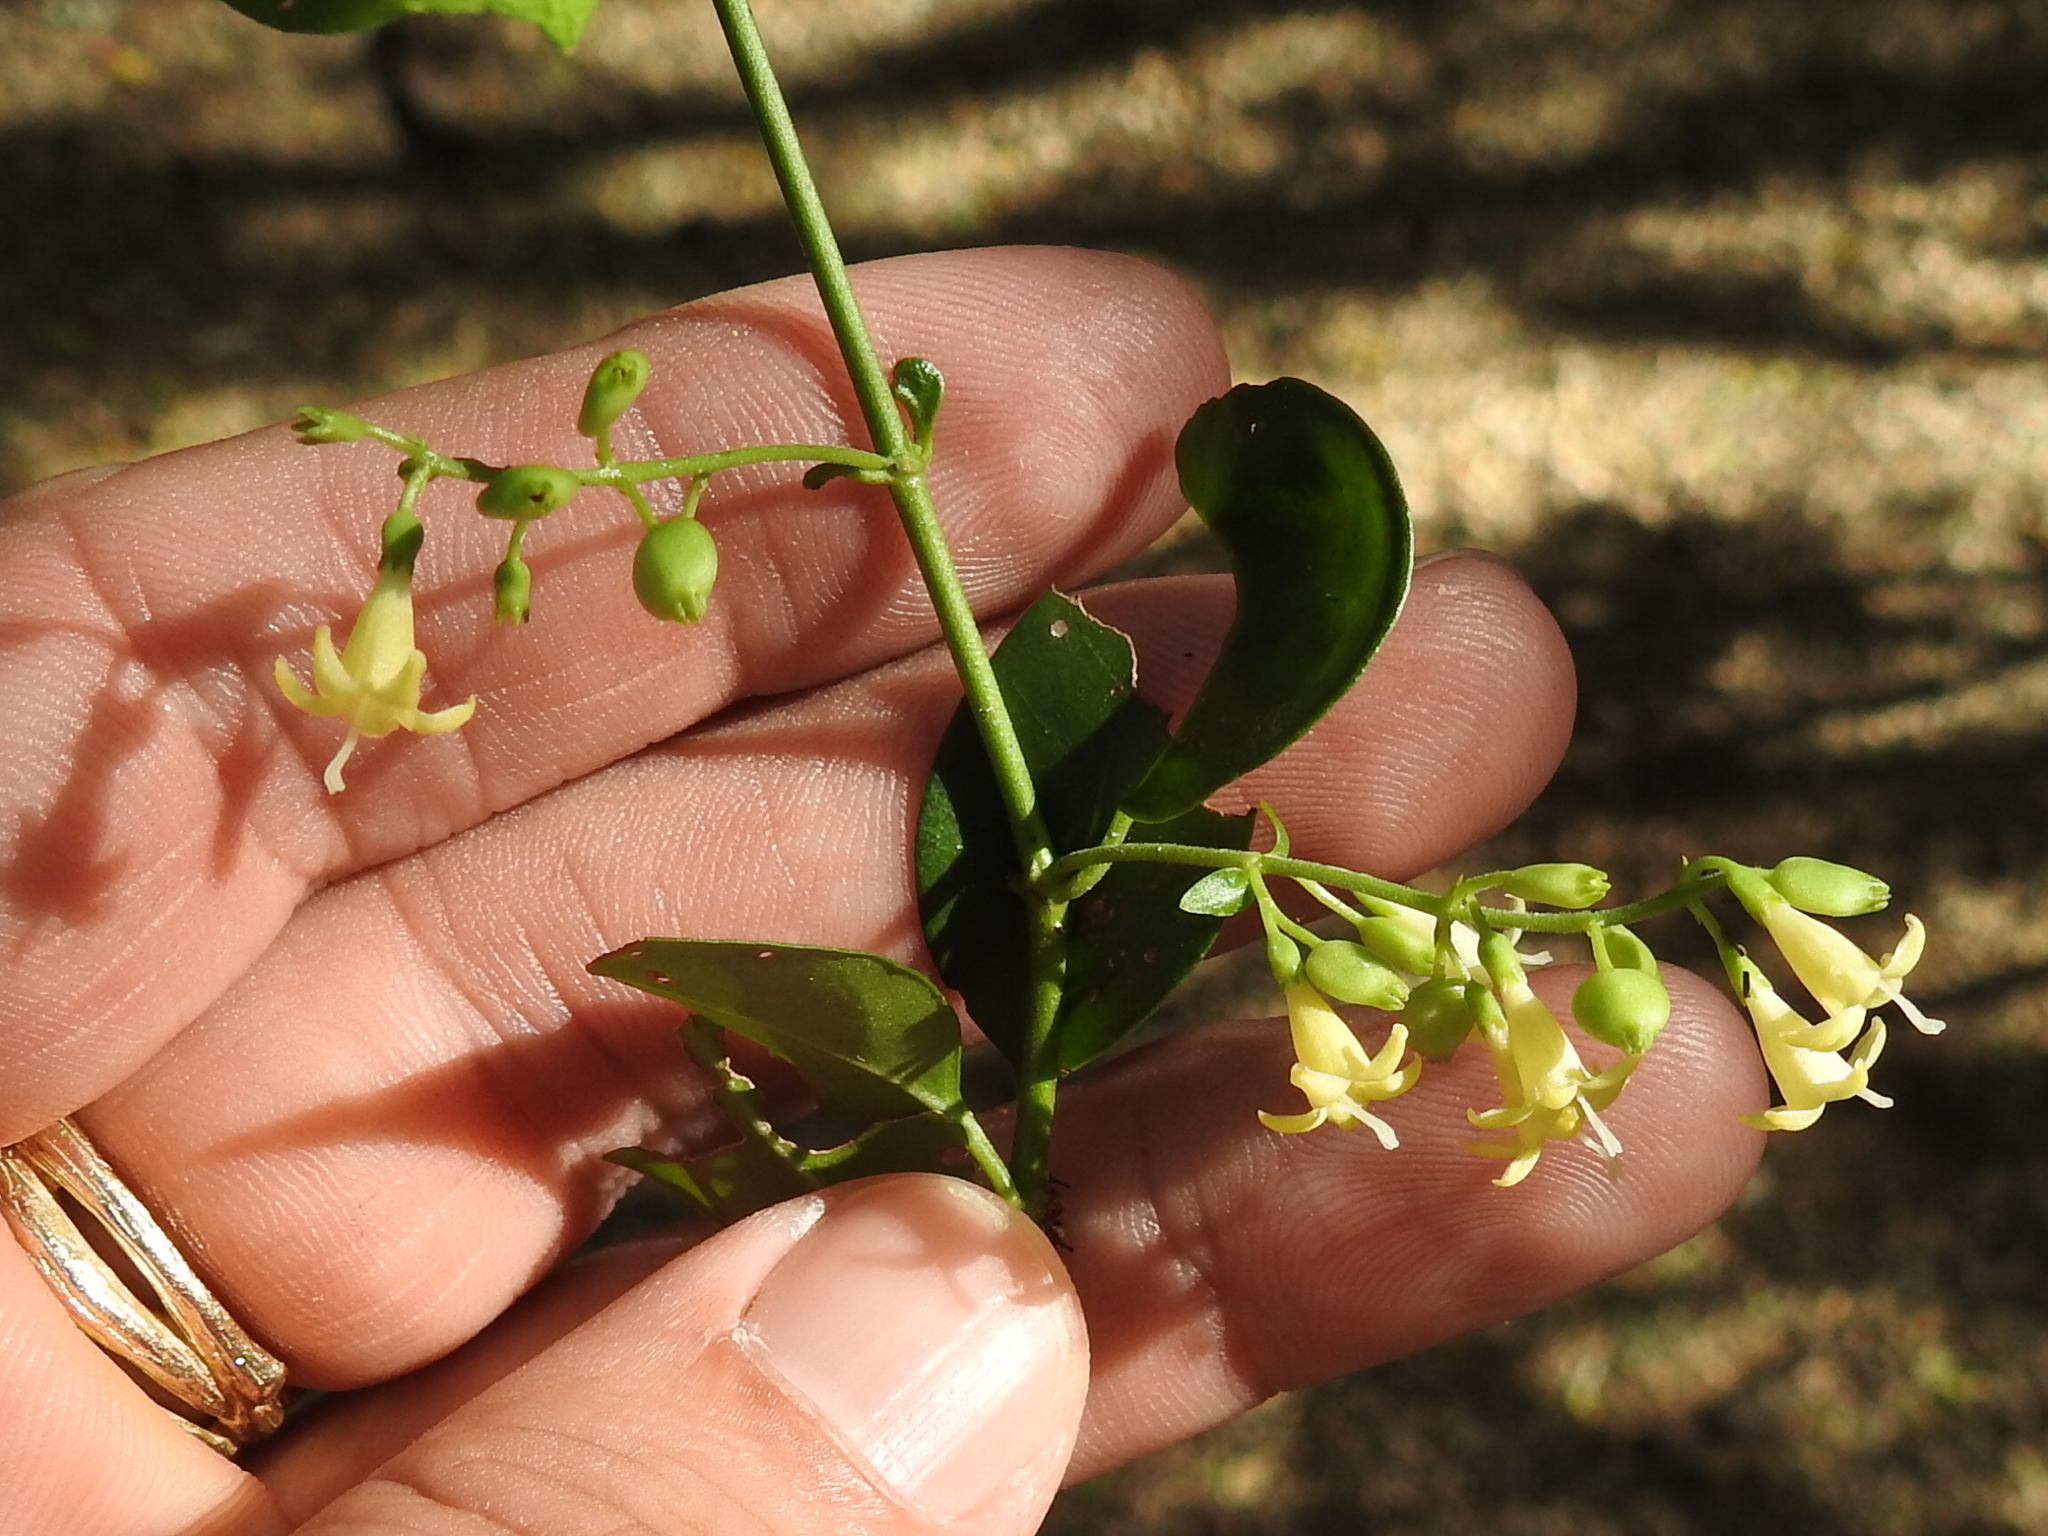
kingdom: Plantae
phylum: Tracheophyta
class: Magnoliopsida
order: Gentianales
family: Rubiaceae
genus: Chiococca
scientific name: Chiococca alba
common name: Snowberry
